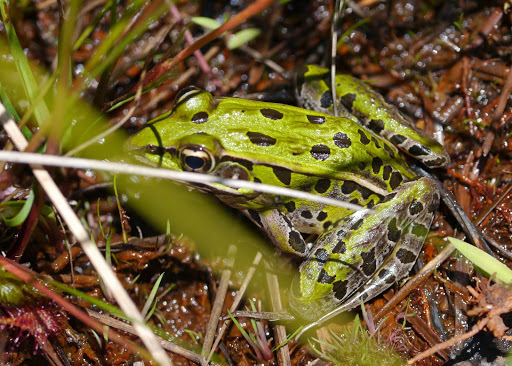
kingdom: Animalia
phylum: Chordata
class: Amphibia
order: Anura
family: Ranidae
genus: Lithobates
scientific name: Lithobates sphenocephalus
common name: Southern leopard frog
